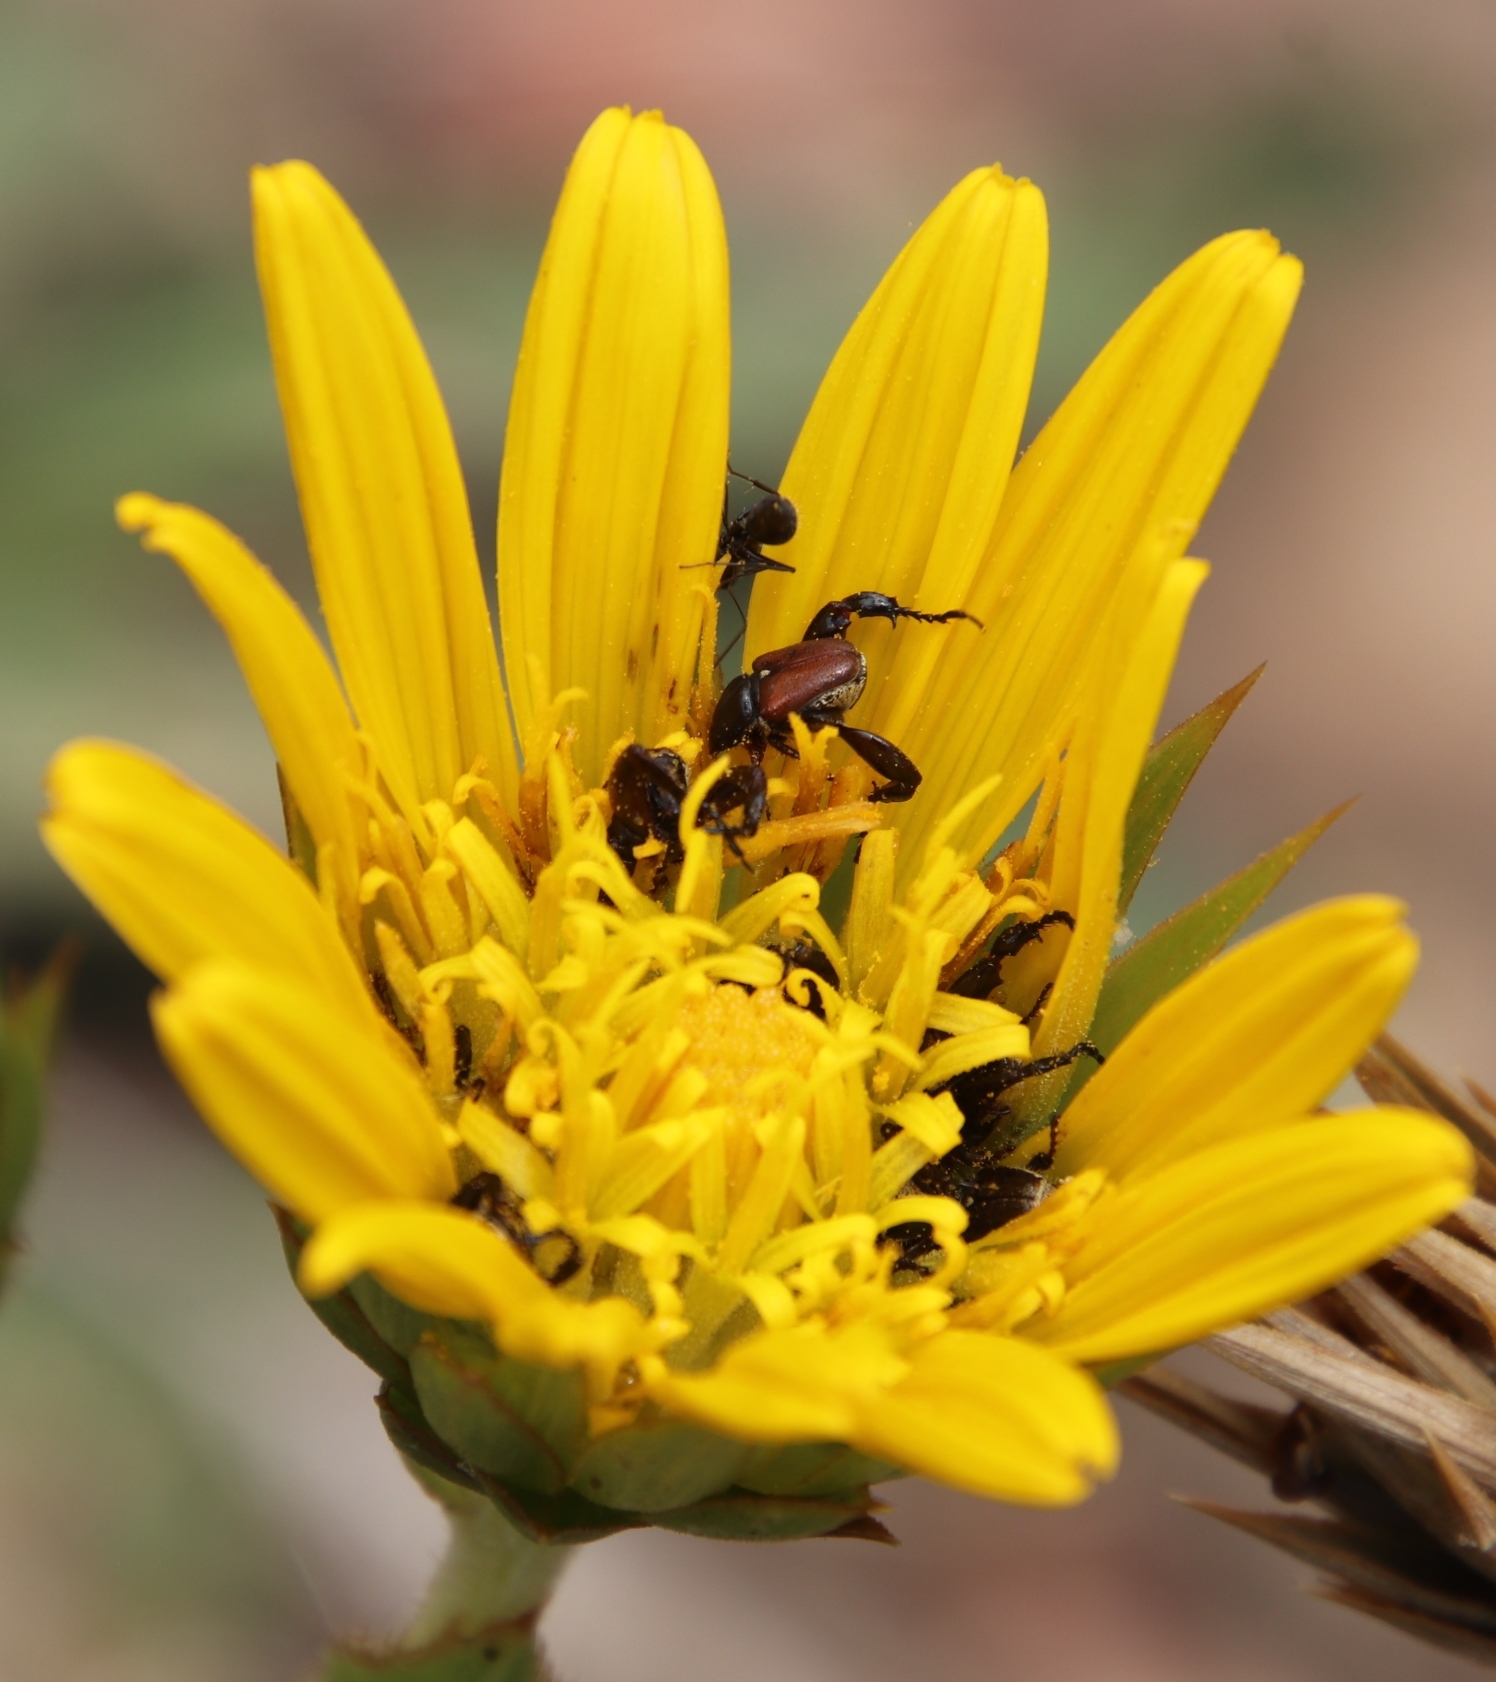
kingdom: Animalia
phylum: Arthropoda
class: Insecta
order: Hymenoptera
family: Formicidae
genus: Camponotus
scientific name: Camponotus niveosetosus
